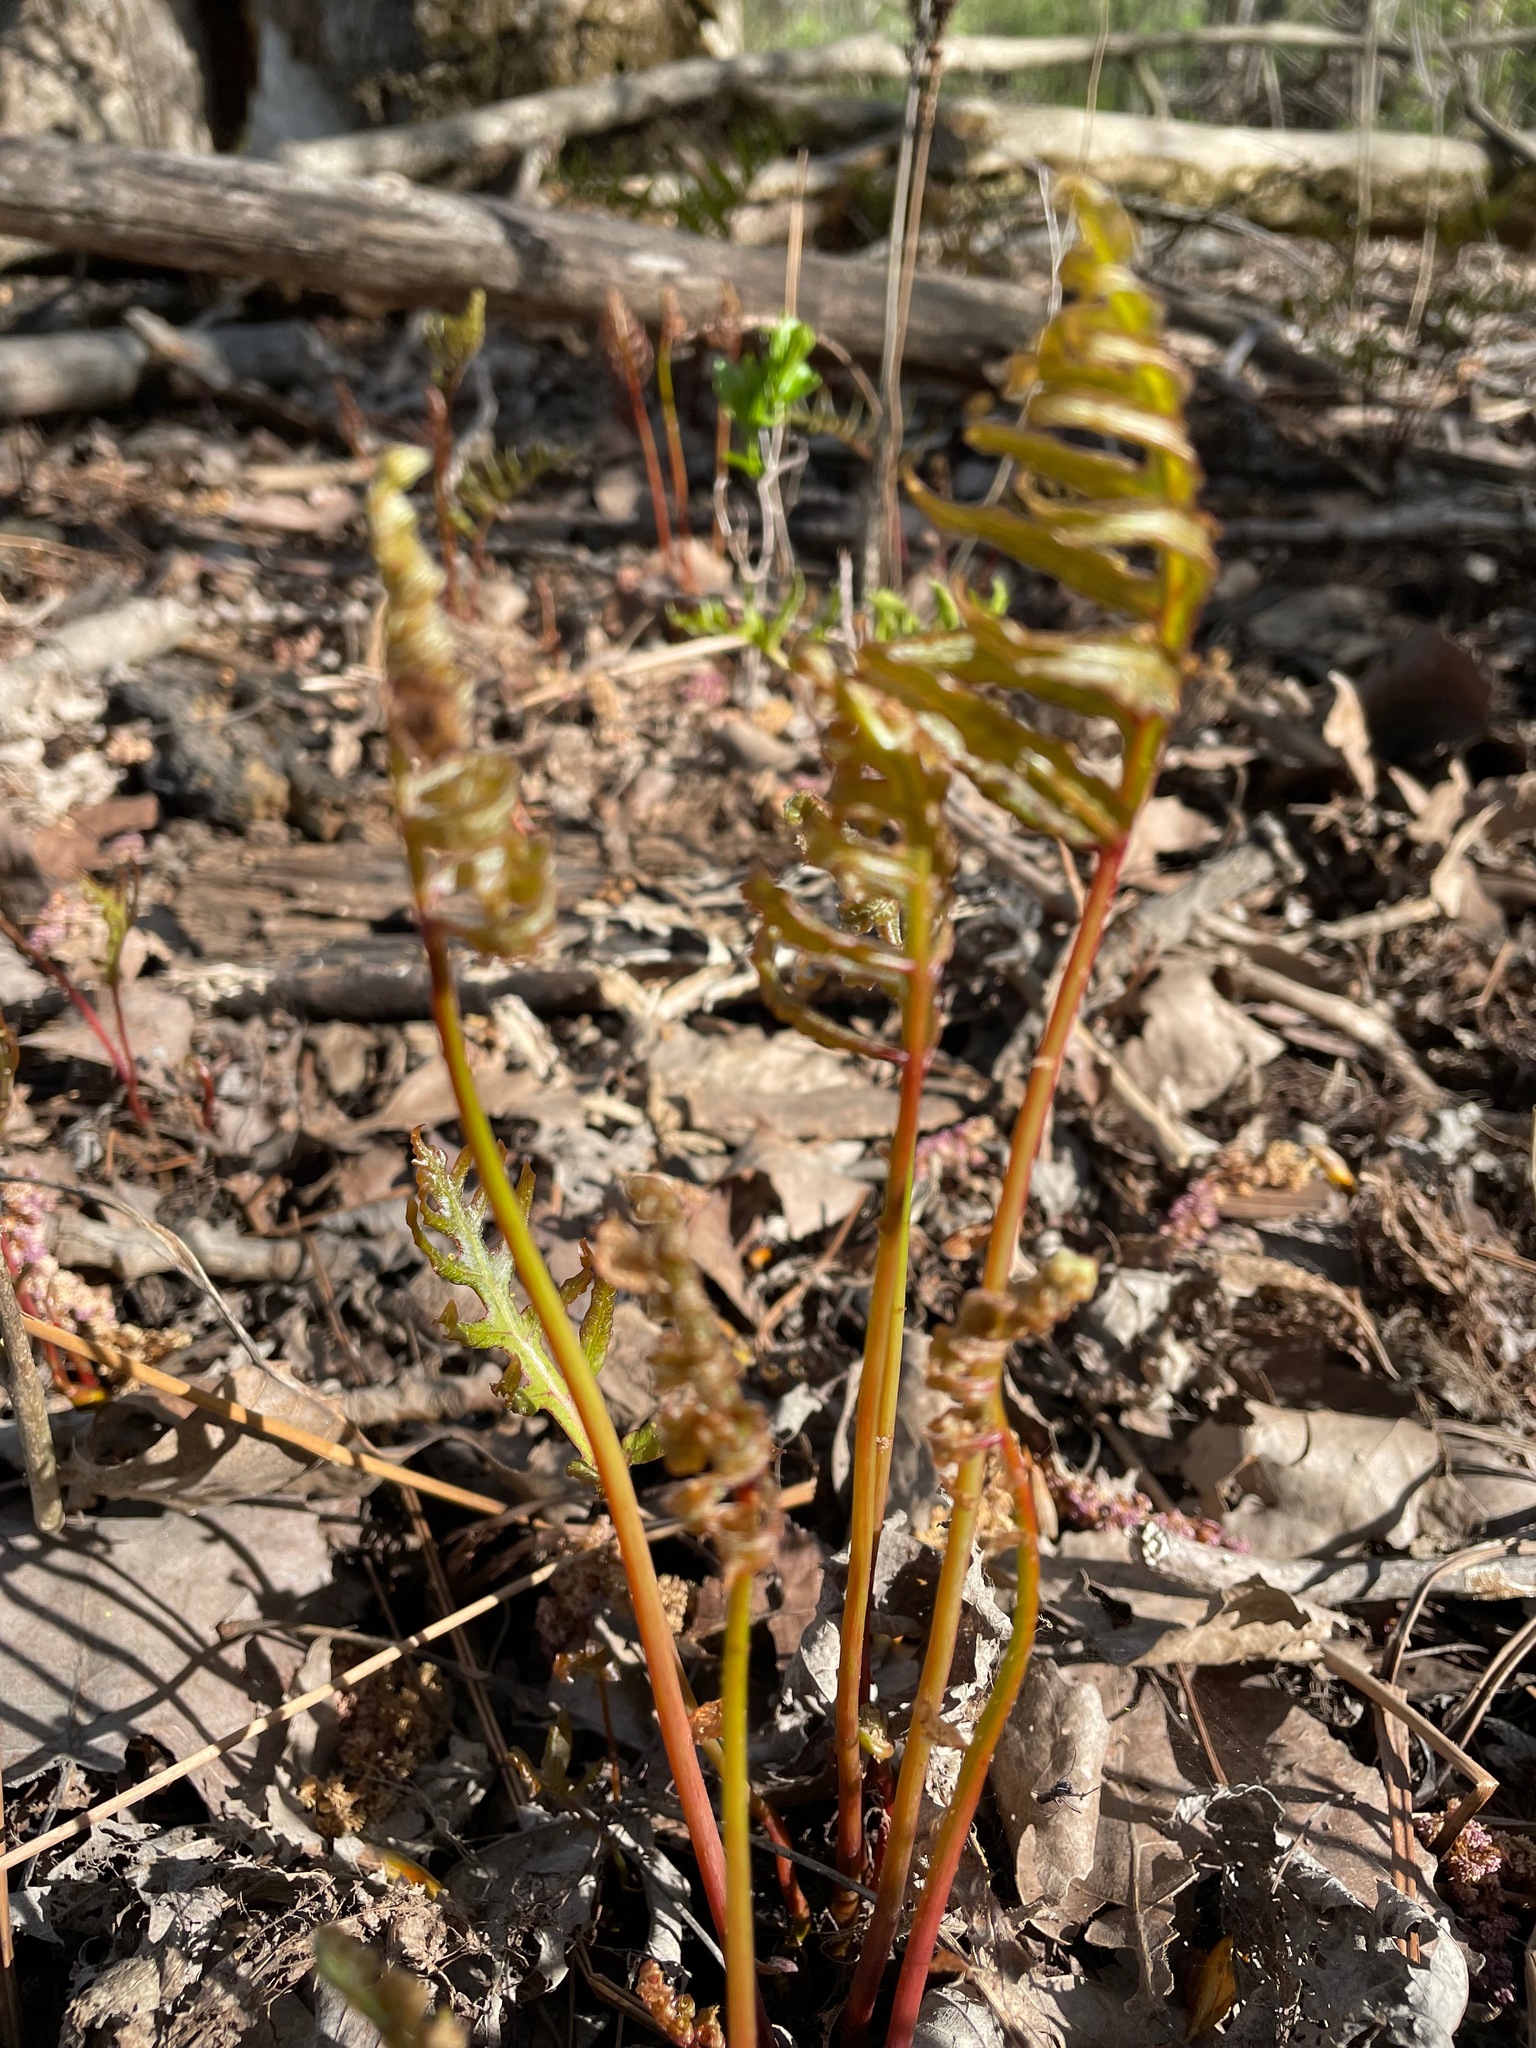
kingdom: Plantae
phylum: Tracheophyta
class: Polypodiopsida
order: Polypodiales
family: Onocleaceae
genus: Onoclea
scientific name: Onoclea sensibilis
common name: Sensitive fern
